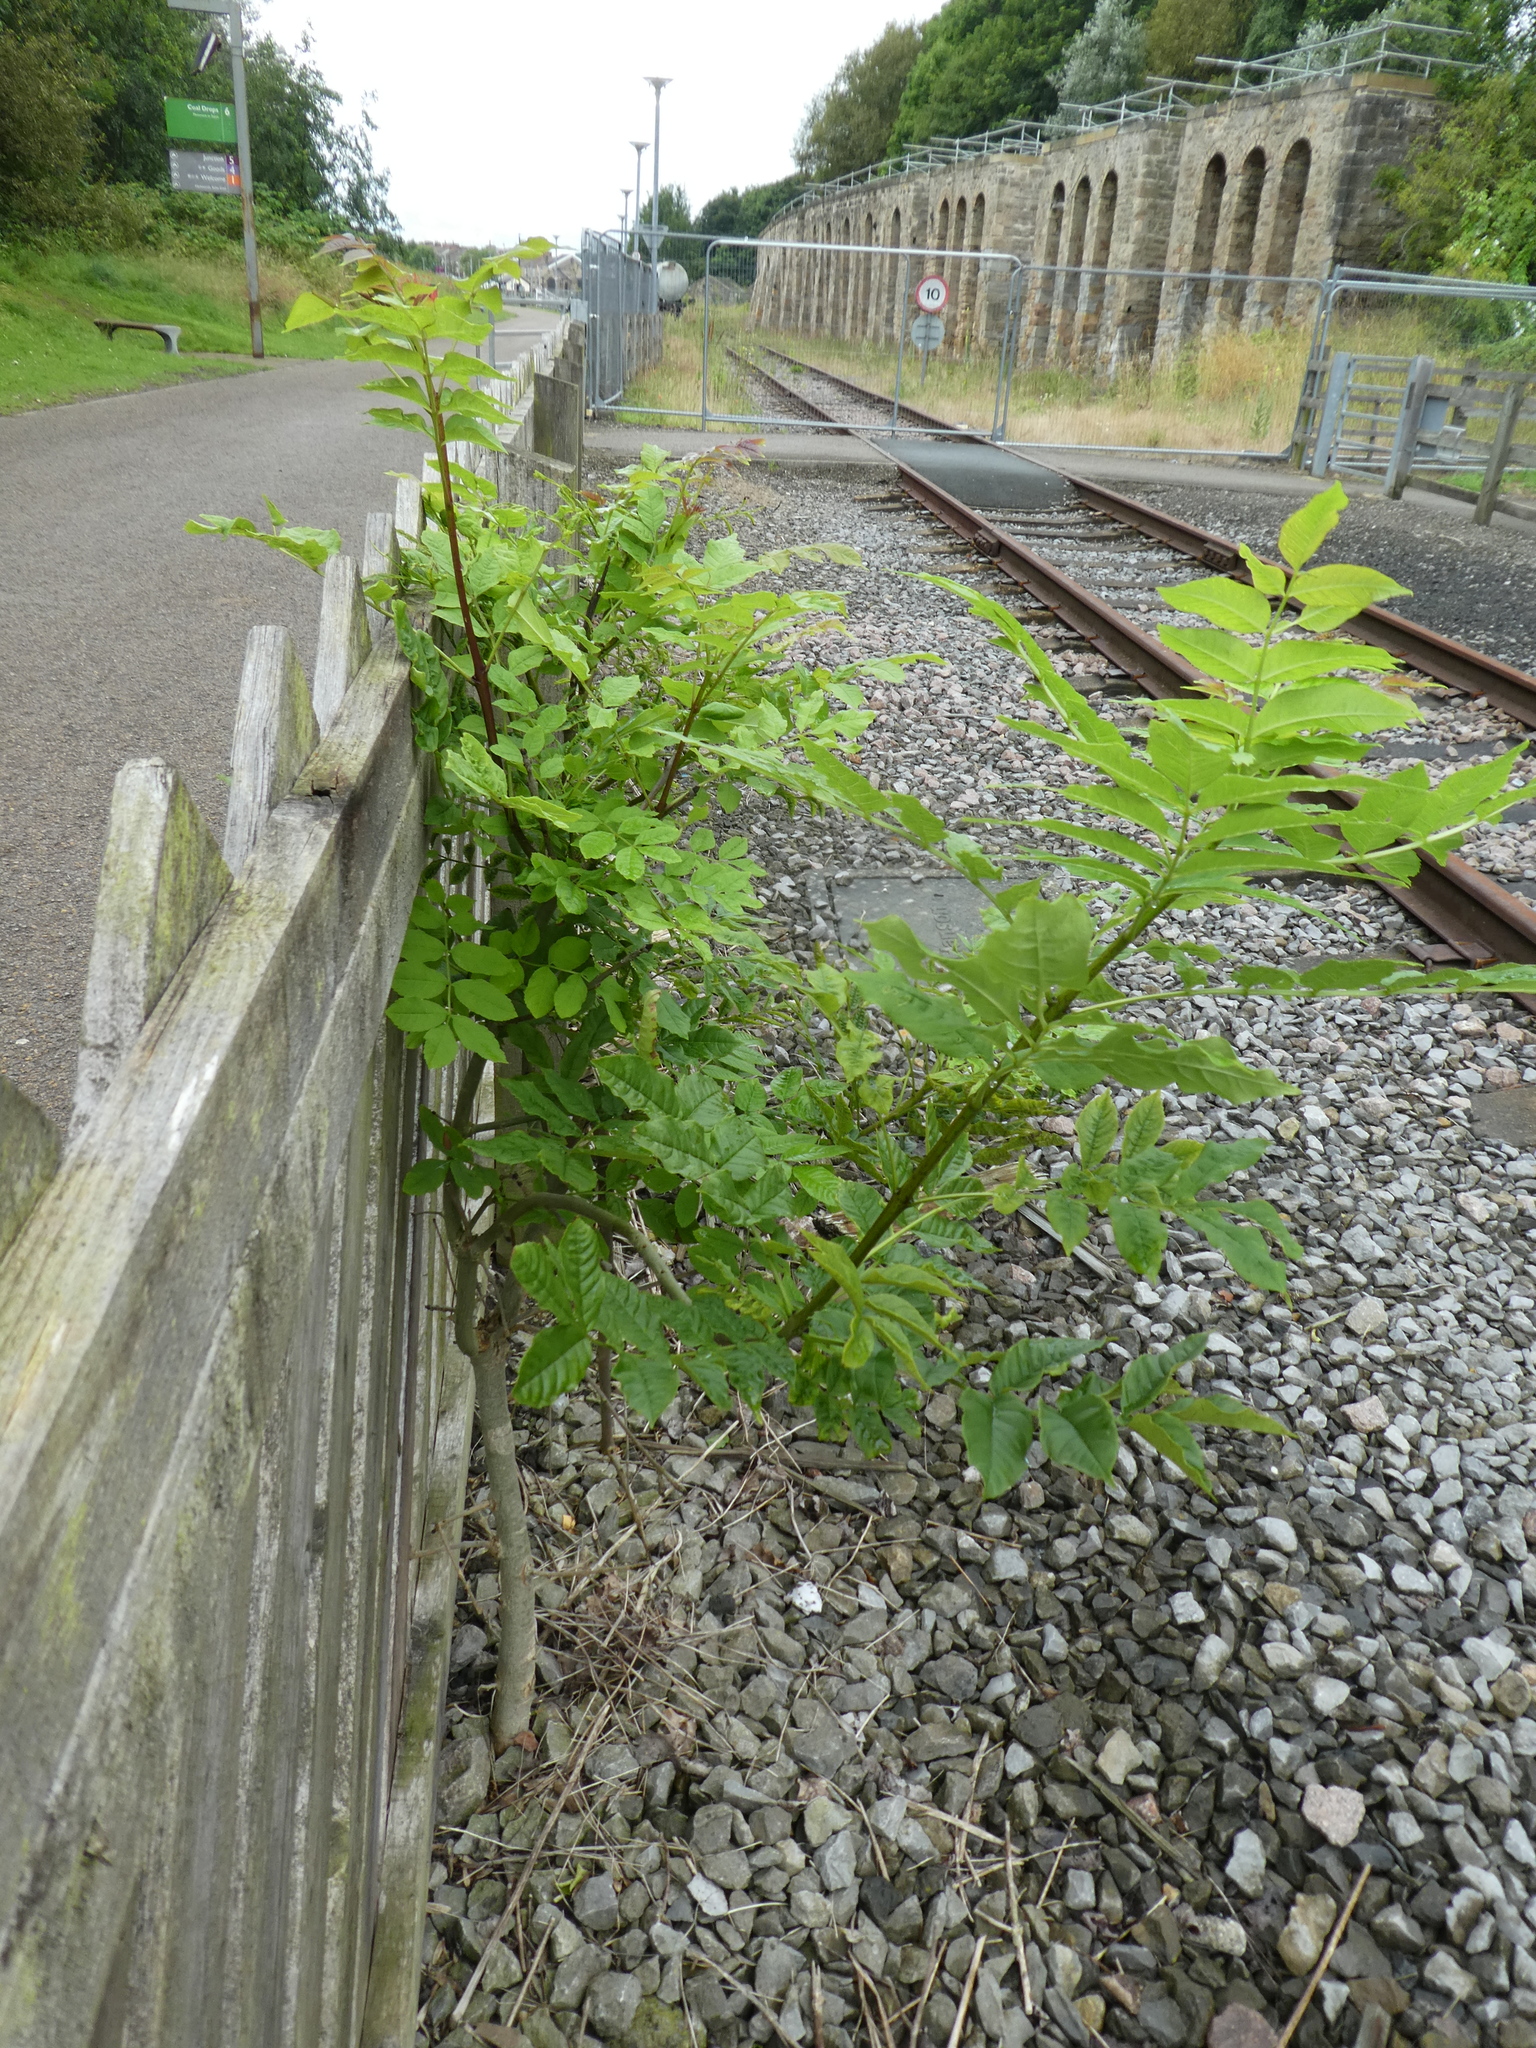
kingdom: Plantae
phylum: Tracheophyta
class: Magnoliopsida
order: Lamiales
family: Oleaceae
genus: Fraxinus
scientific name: Fraxinus excelsior
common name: European ash
